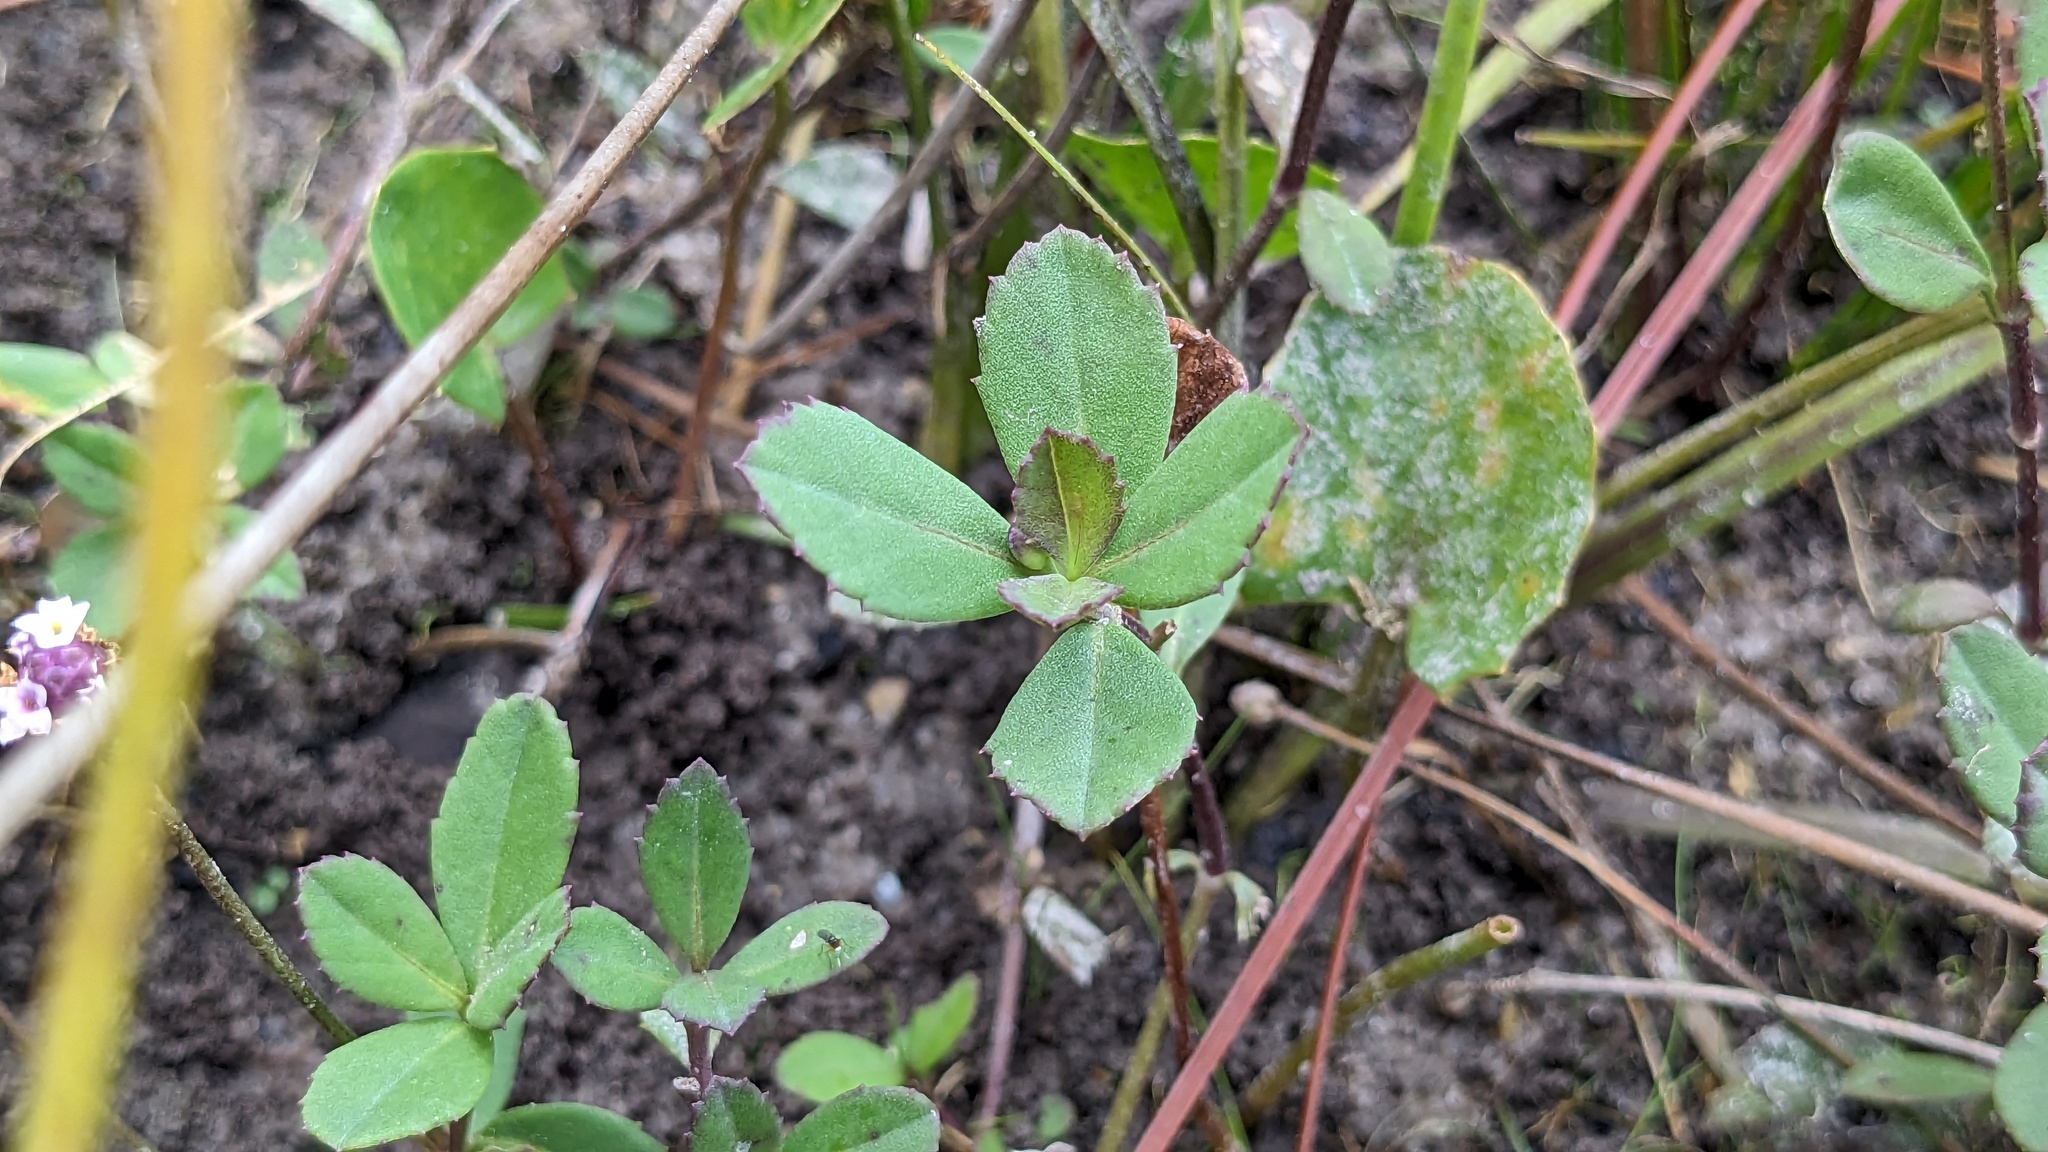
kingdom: Plantae
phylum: Tracheophyta
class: Magnoliopsida
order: Lamiales
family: Verbenaceae
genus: Phyla
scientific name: Phyla nodiflora
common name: Frogfruit
